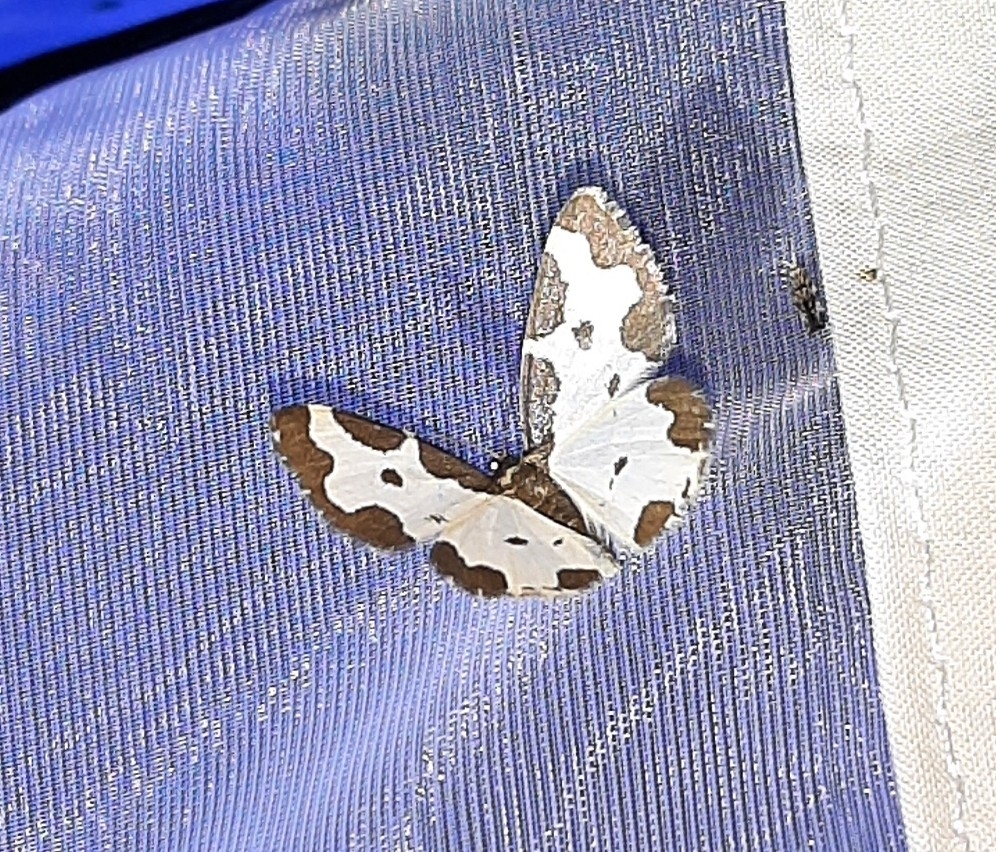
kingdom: Animalia
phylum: Arthropoda
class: Insecta
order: Lepidoptera
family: Geometridae
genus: Lomaspilis
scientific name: Lomaspilis marginata
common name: Clouded border
